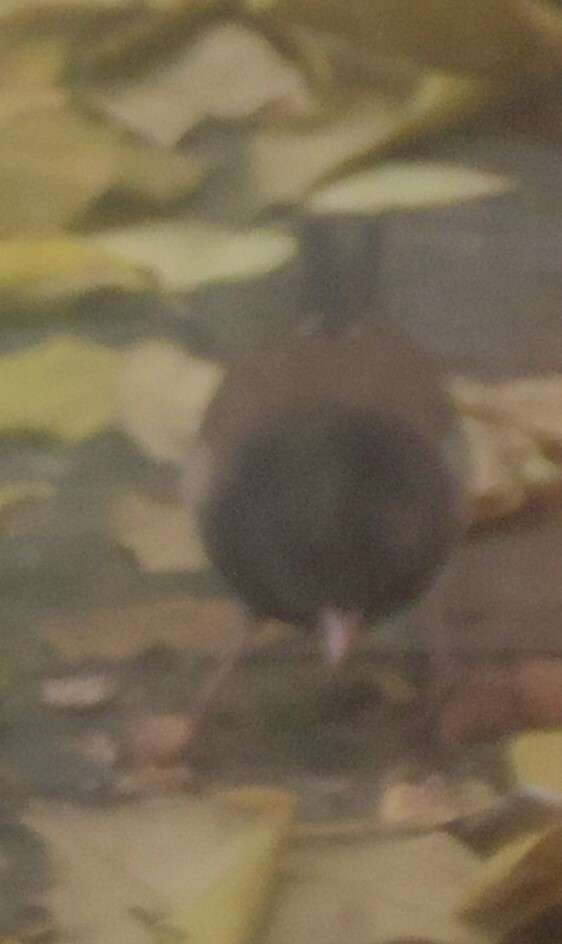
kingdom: Animalia
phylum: Chordata
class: Aves
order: Passeriformes
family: Passerellidae
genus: Junco
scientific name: Junco hyemalis
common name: Dark-eyed junco
